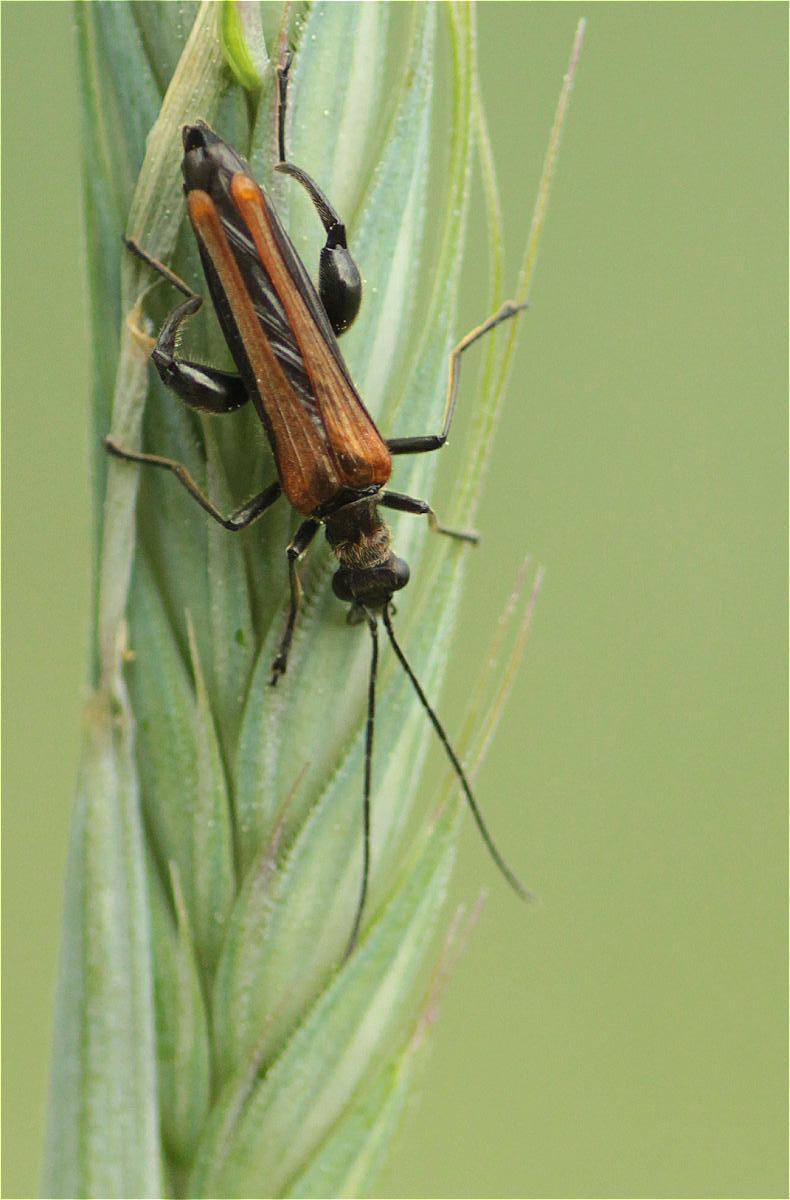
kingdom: Animalia
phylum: Arthropoda
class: Insecta
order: Coleoptera
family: Oedemeridae
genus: Oedemera
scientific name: Oedemera femorata
